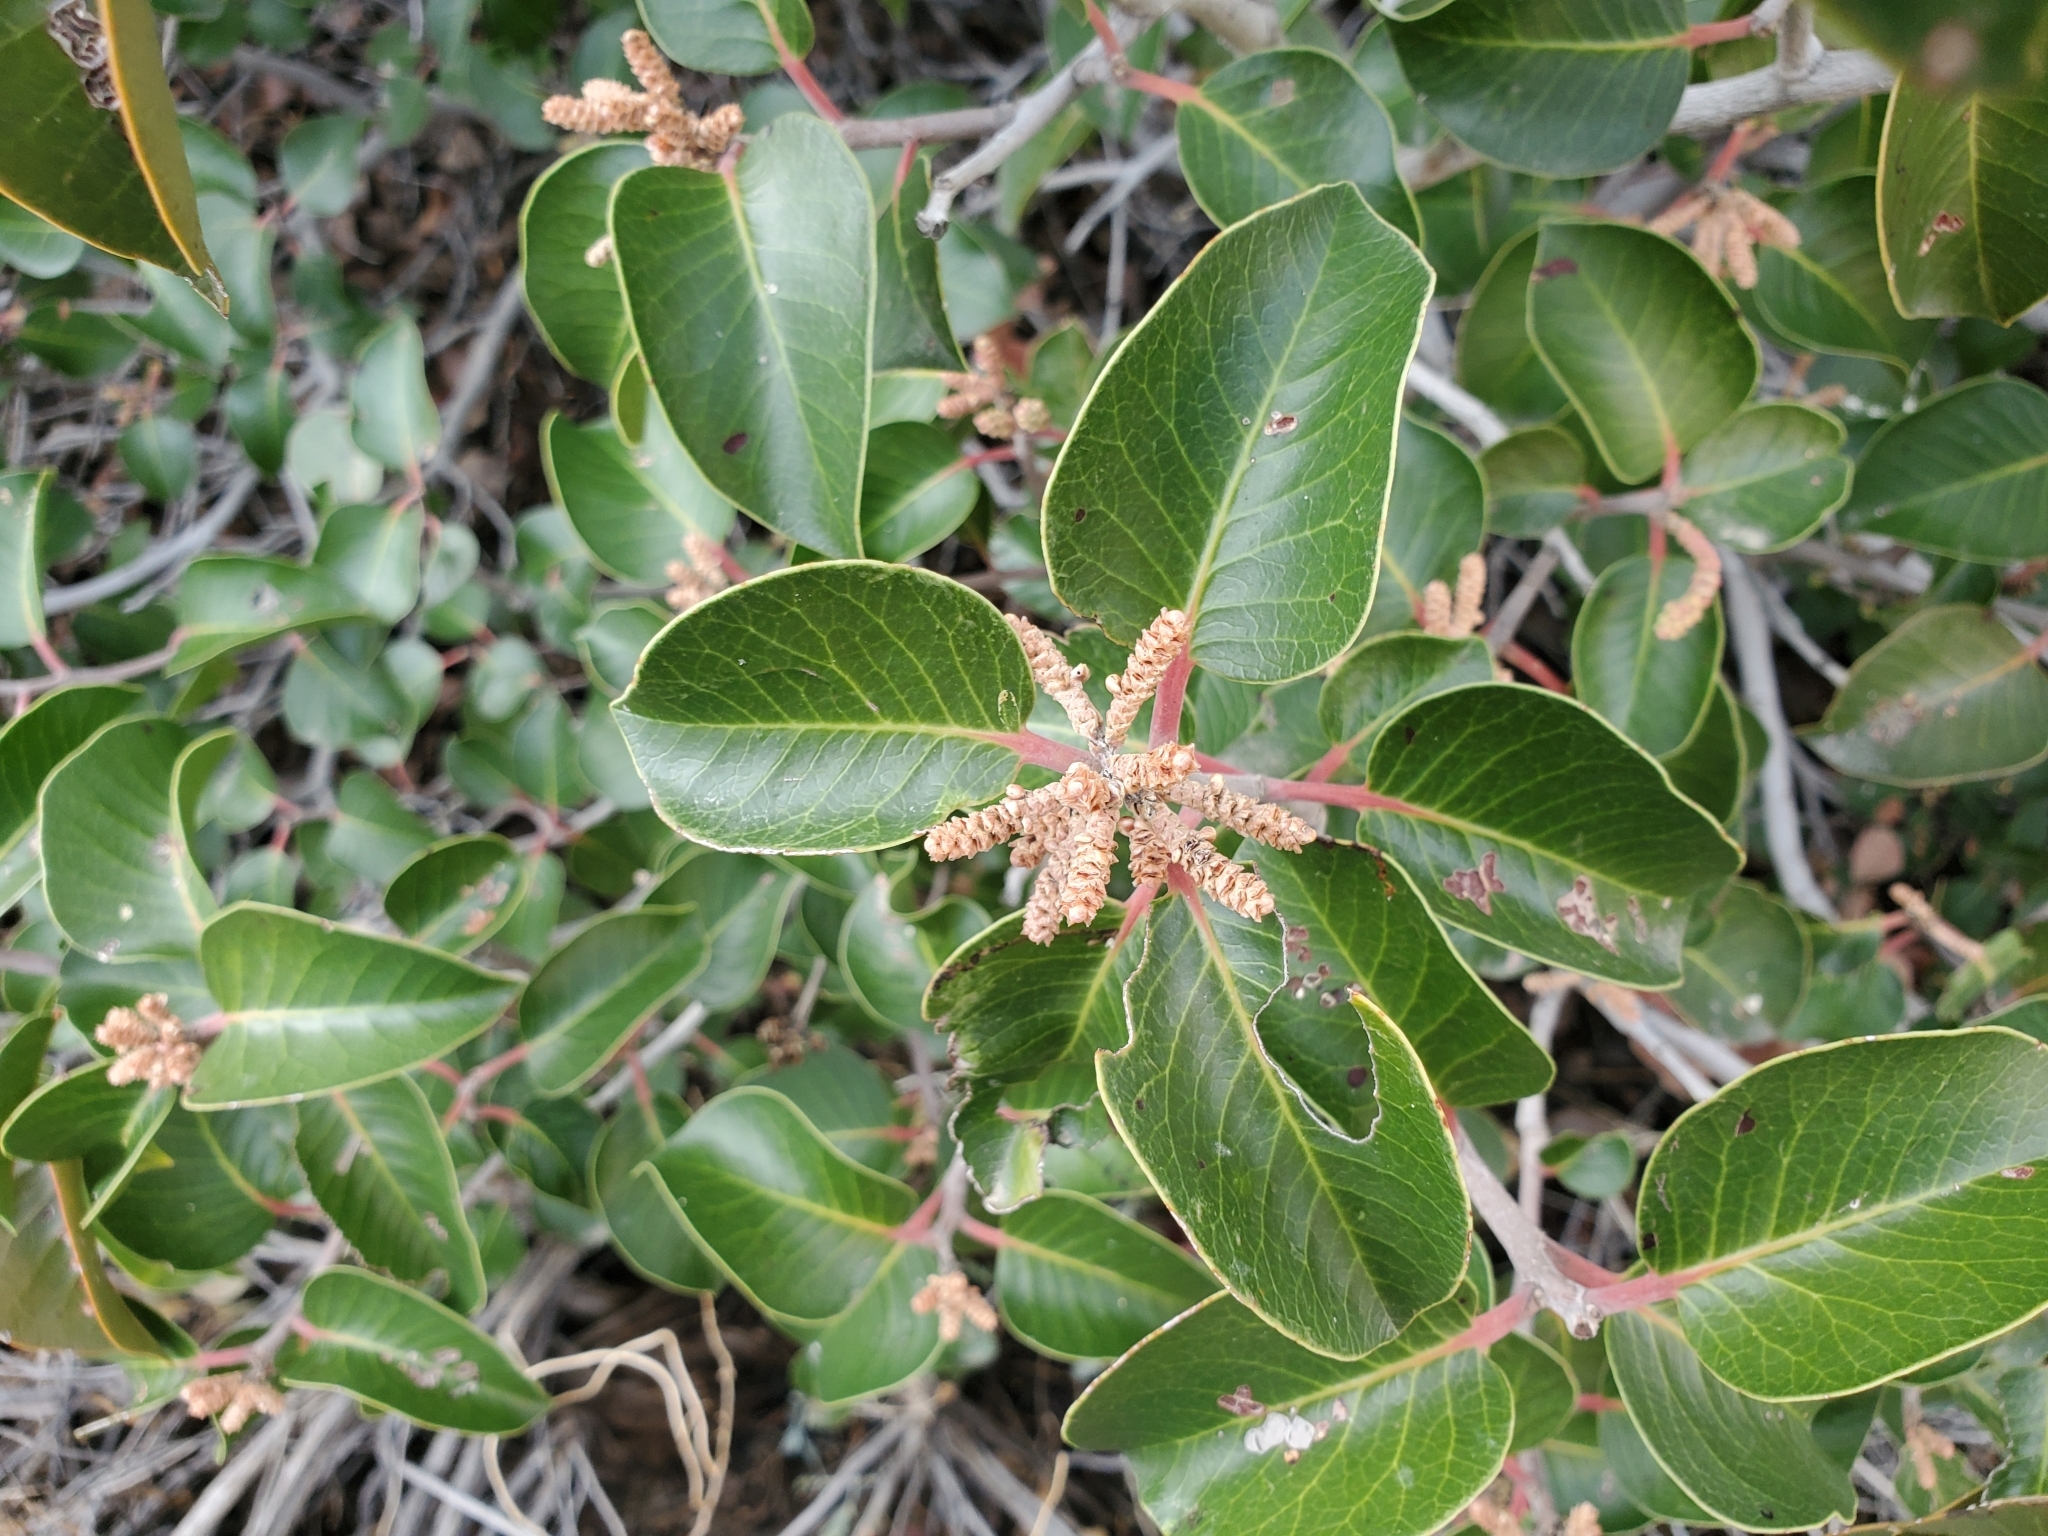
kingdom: Plantae
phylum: Tracheophyta
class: Magnoliopsida
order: Sapindales
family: Anacardiaceae
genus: Rhus
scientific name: Rhus ovata
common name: Sugar sumac
